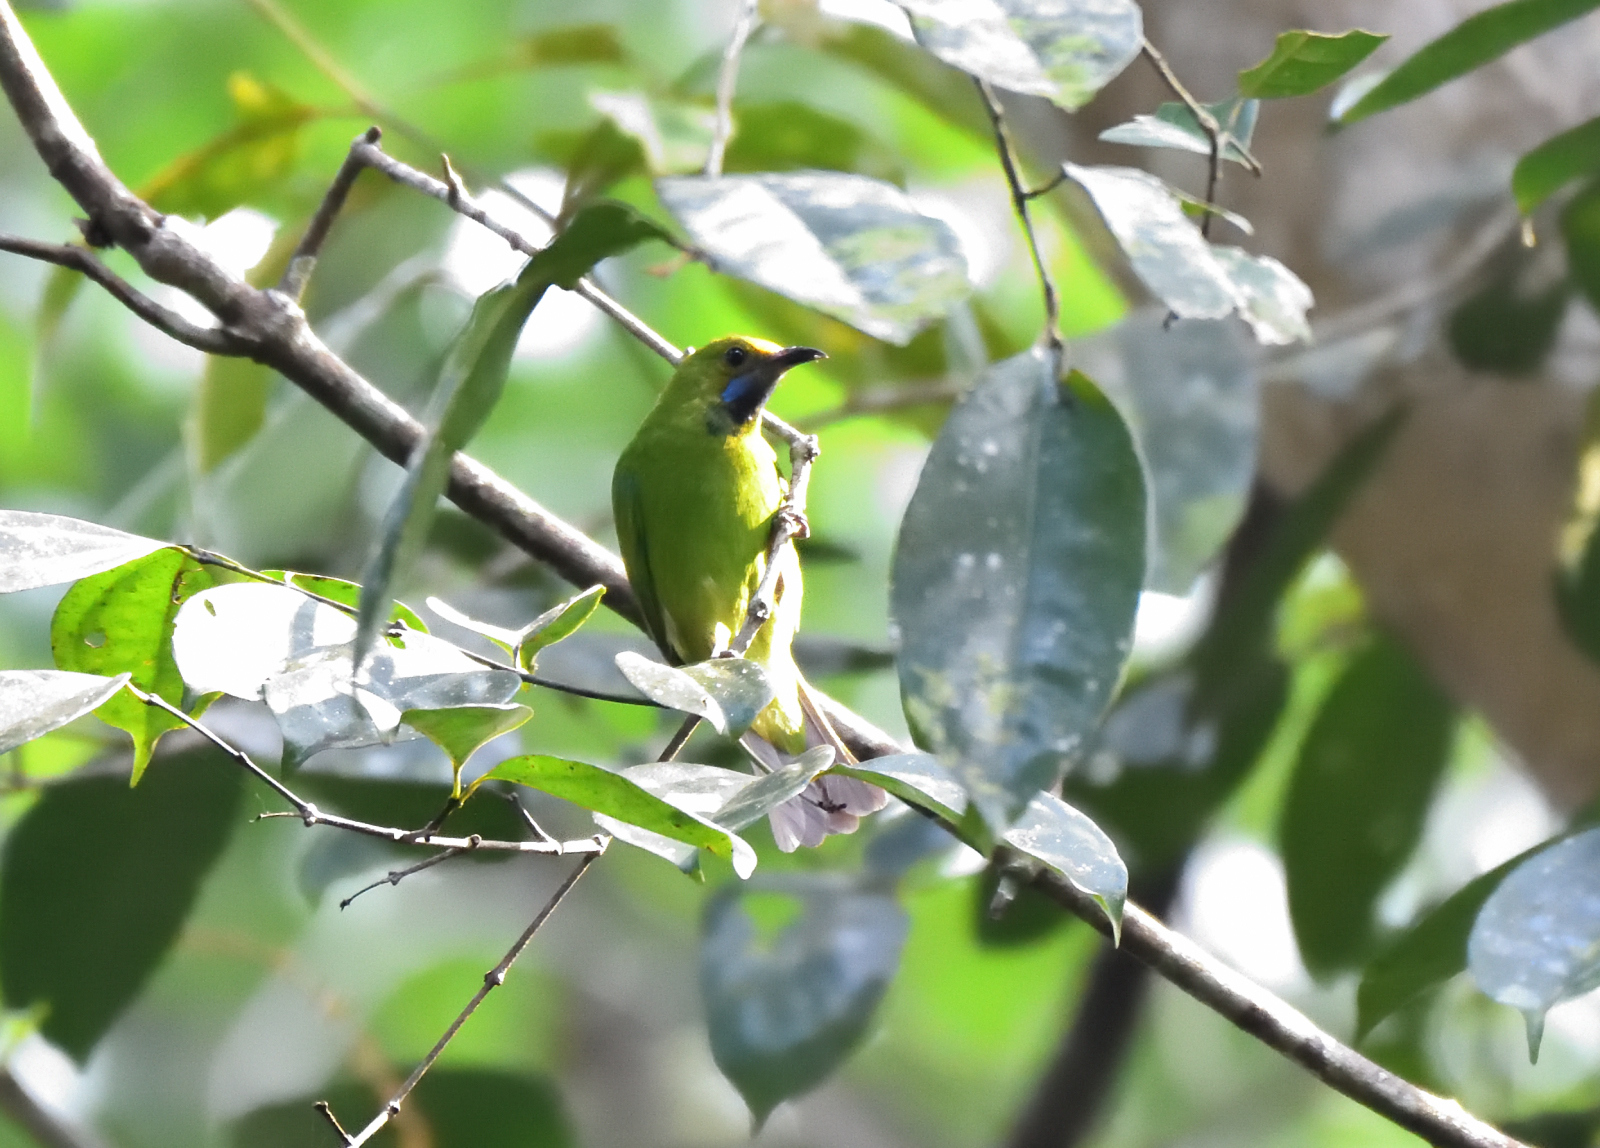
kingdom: Animalia
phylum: Chordata
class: Aves
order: Passeriformes
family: Chloropseidae
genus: Chloropsis
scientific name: Chloropsis aurifrons
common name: Golden-fronted leafbird
